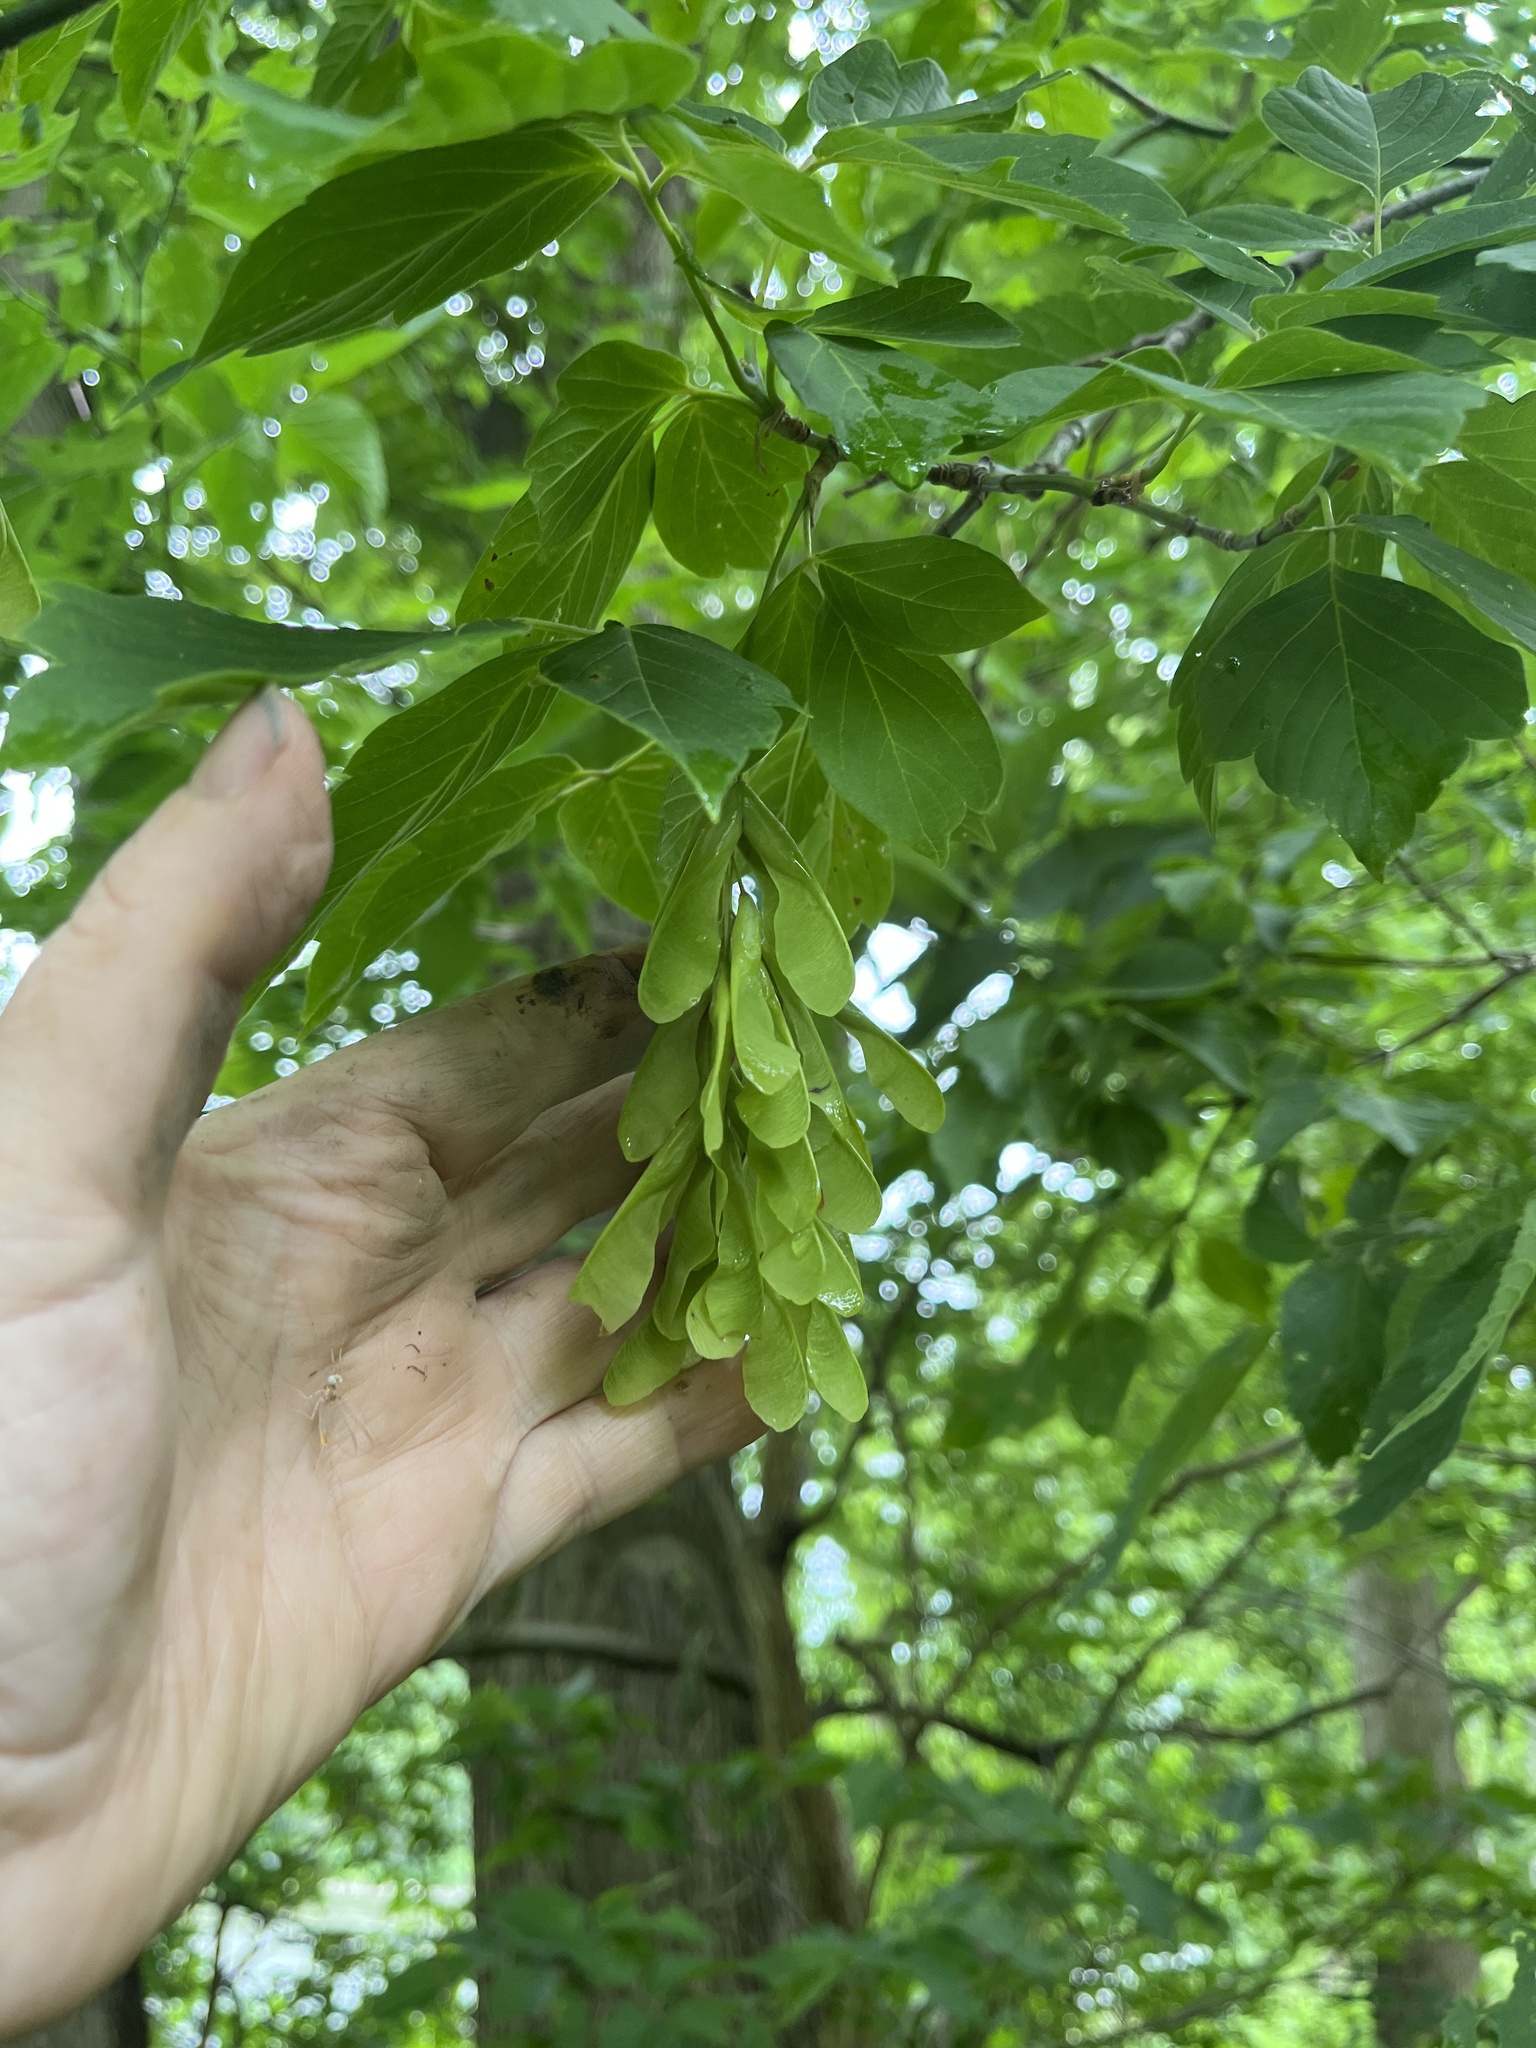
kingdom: Plantae
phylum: Tracheophyta
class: Magnoliopsida
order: Sapindales
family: Sapindaceae
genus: Acer
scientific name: Acer negundo
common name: Ashleaf maple
